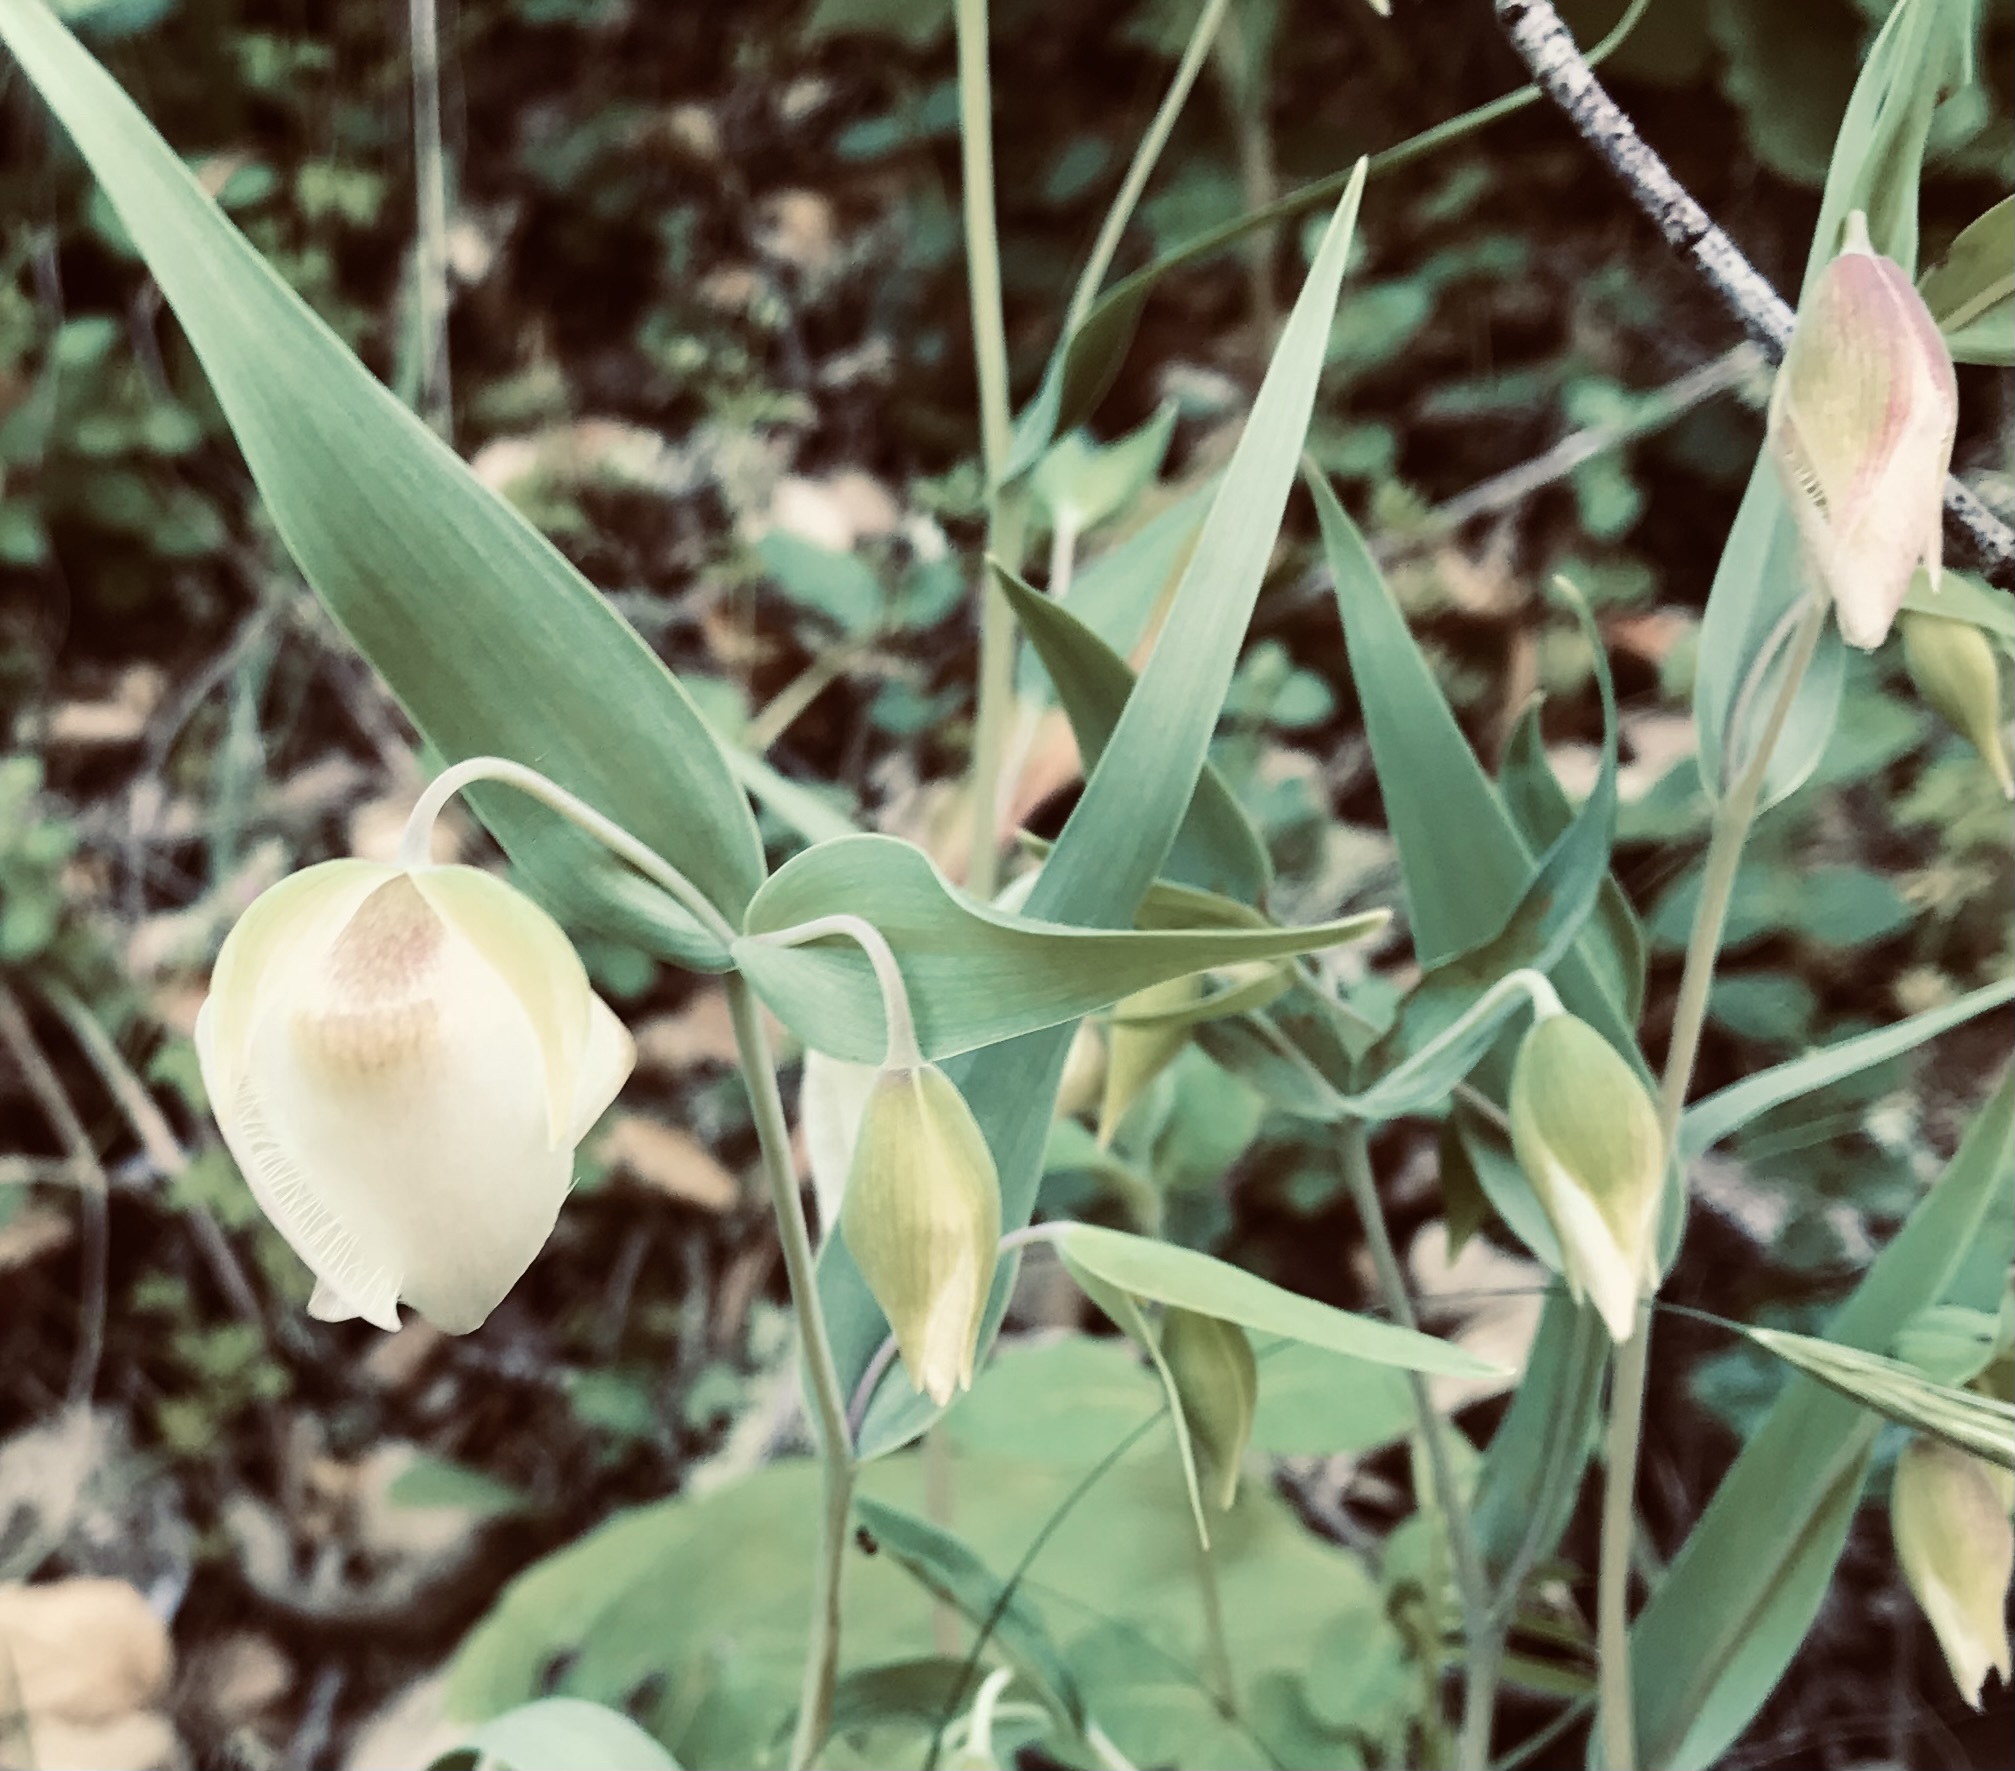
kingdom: Plantae
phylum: Tracheophyta
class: Liliopsida
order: Liliales
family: Liliaceae
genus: Calochortus
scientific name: Calochortus albus
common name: Fairy-lantern
